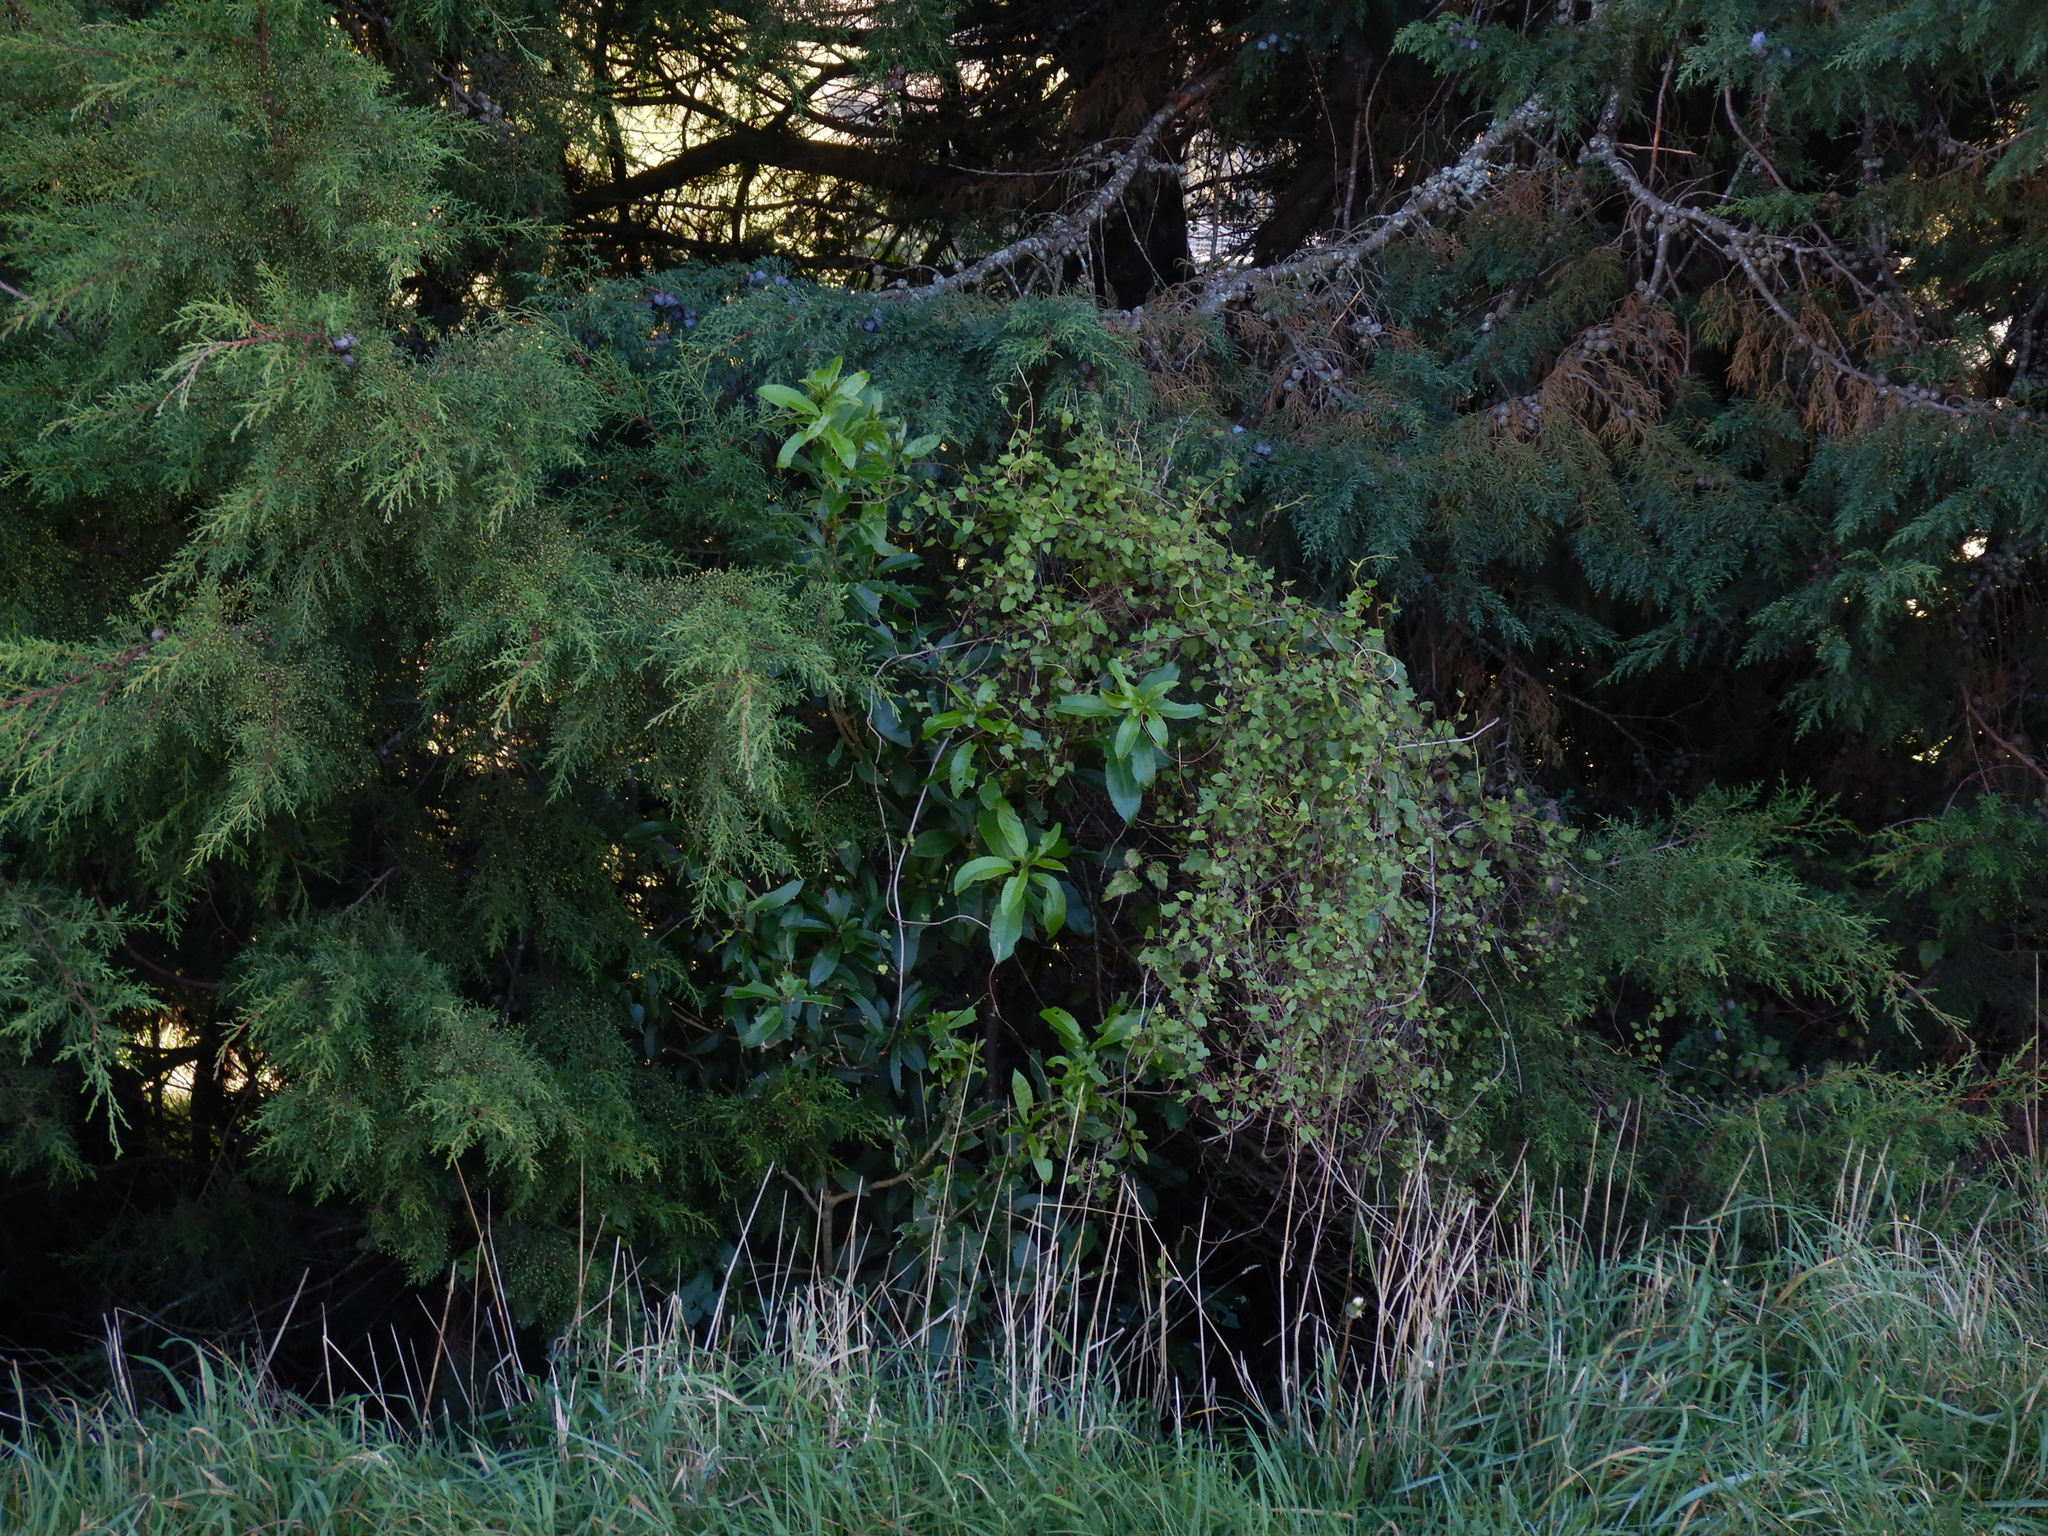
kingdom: Plantae
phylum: Tracheophyta
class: Magnoliopsida
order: Malpighiales
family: Violaceae
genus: Melicytus
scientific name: Melicytus ramiflorus
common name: Mahoe
